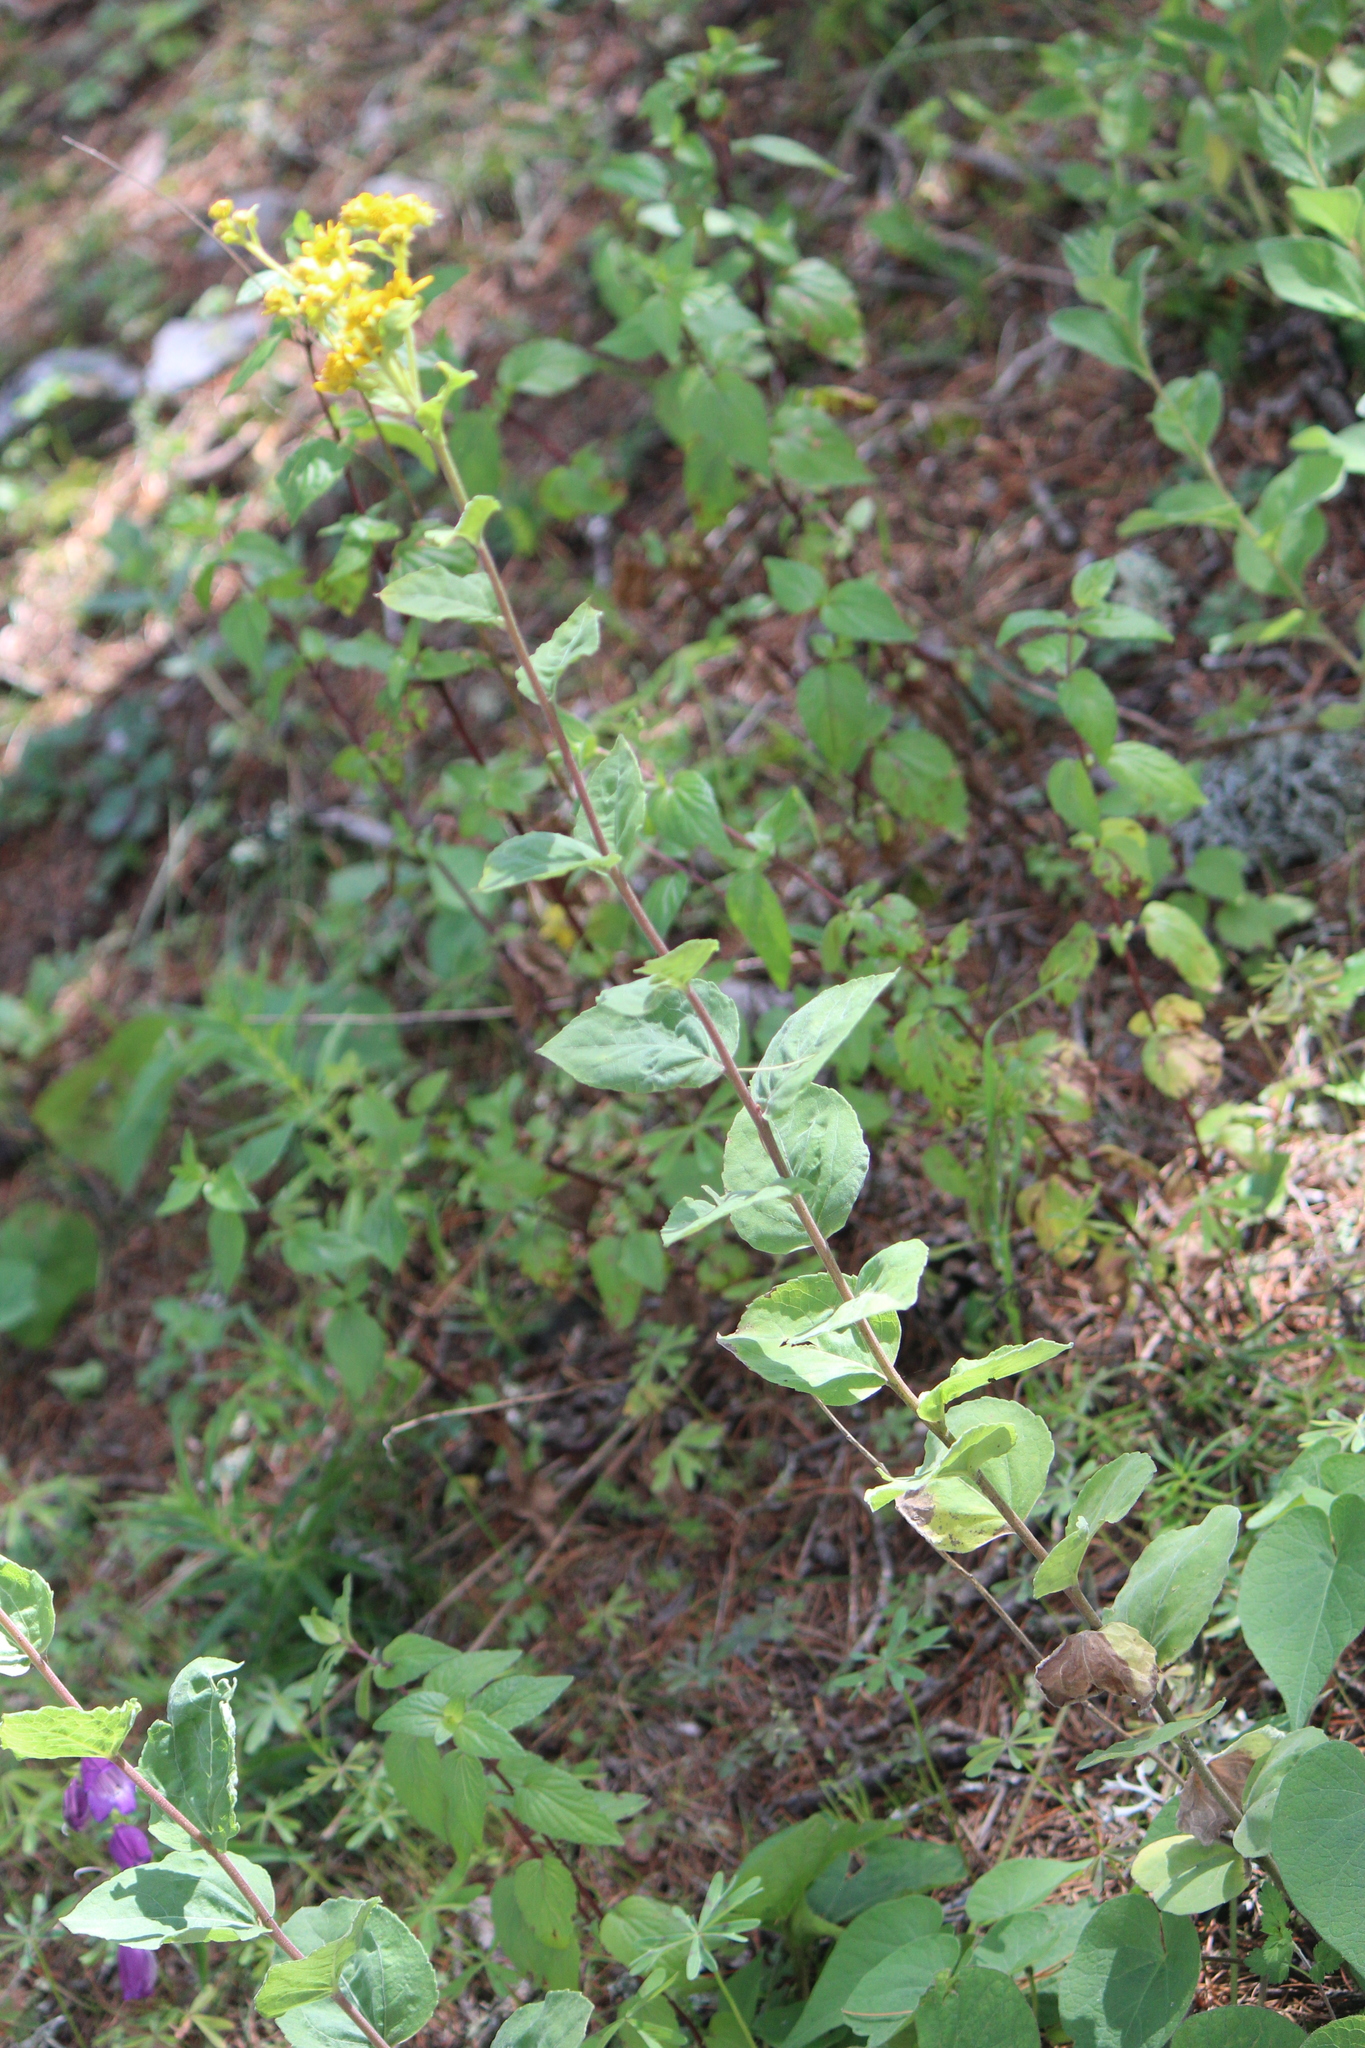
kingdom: Plantae
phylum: Tracheophyta
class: Magnoliopsida
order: Asterales
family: Asteraceae
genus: Zaluzania
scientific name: Zaluzania megacephala
